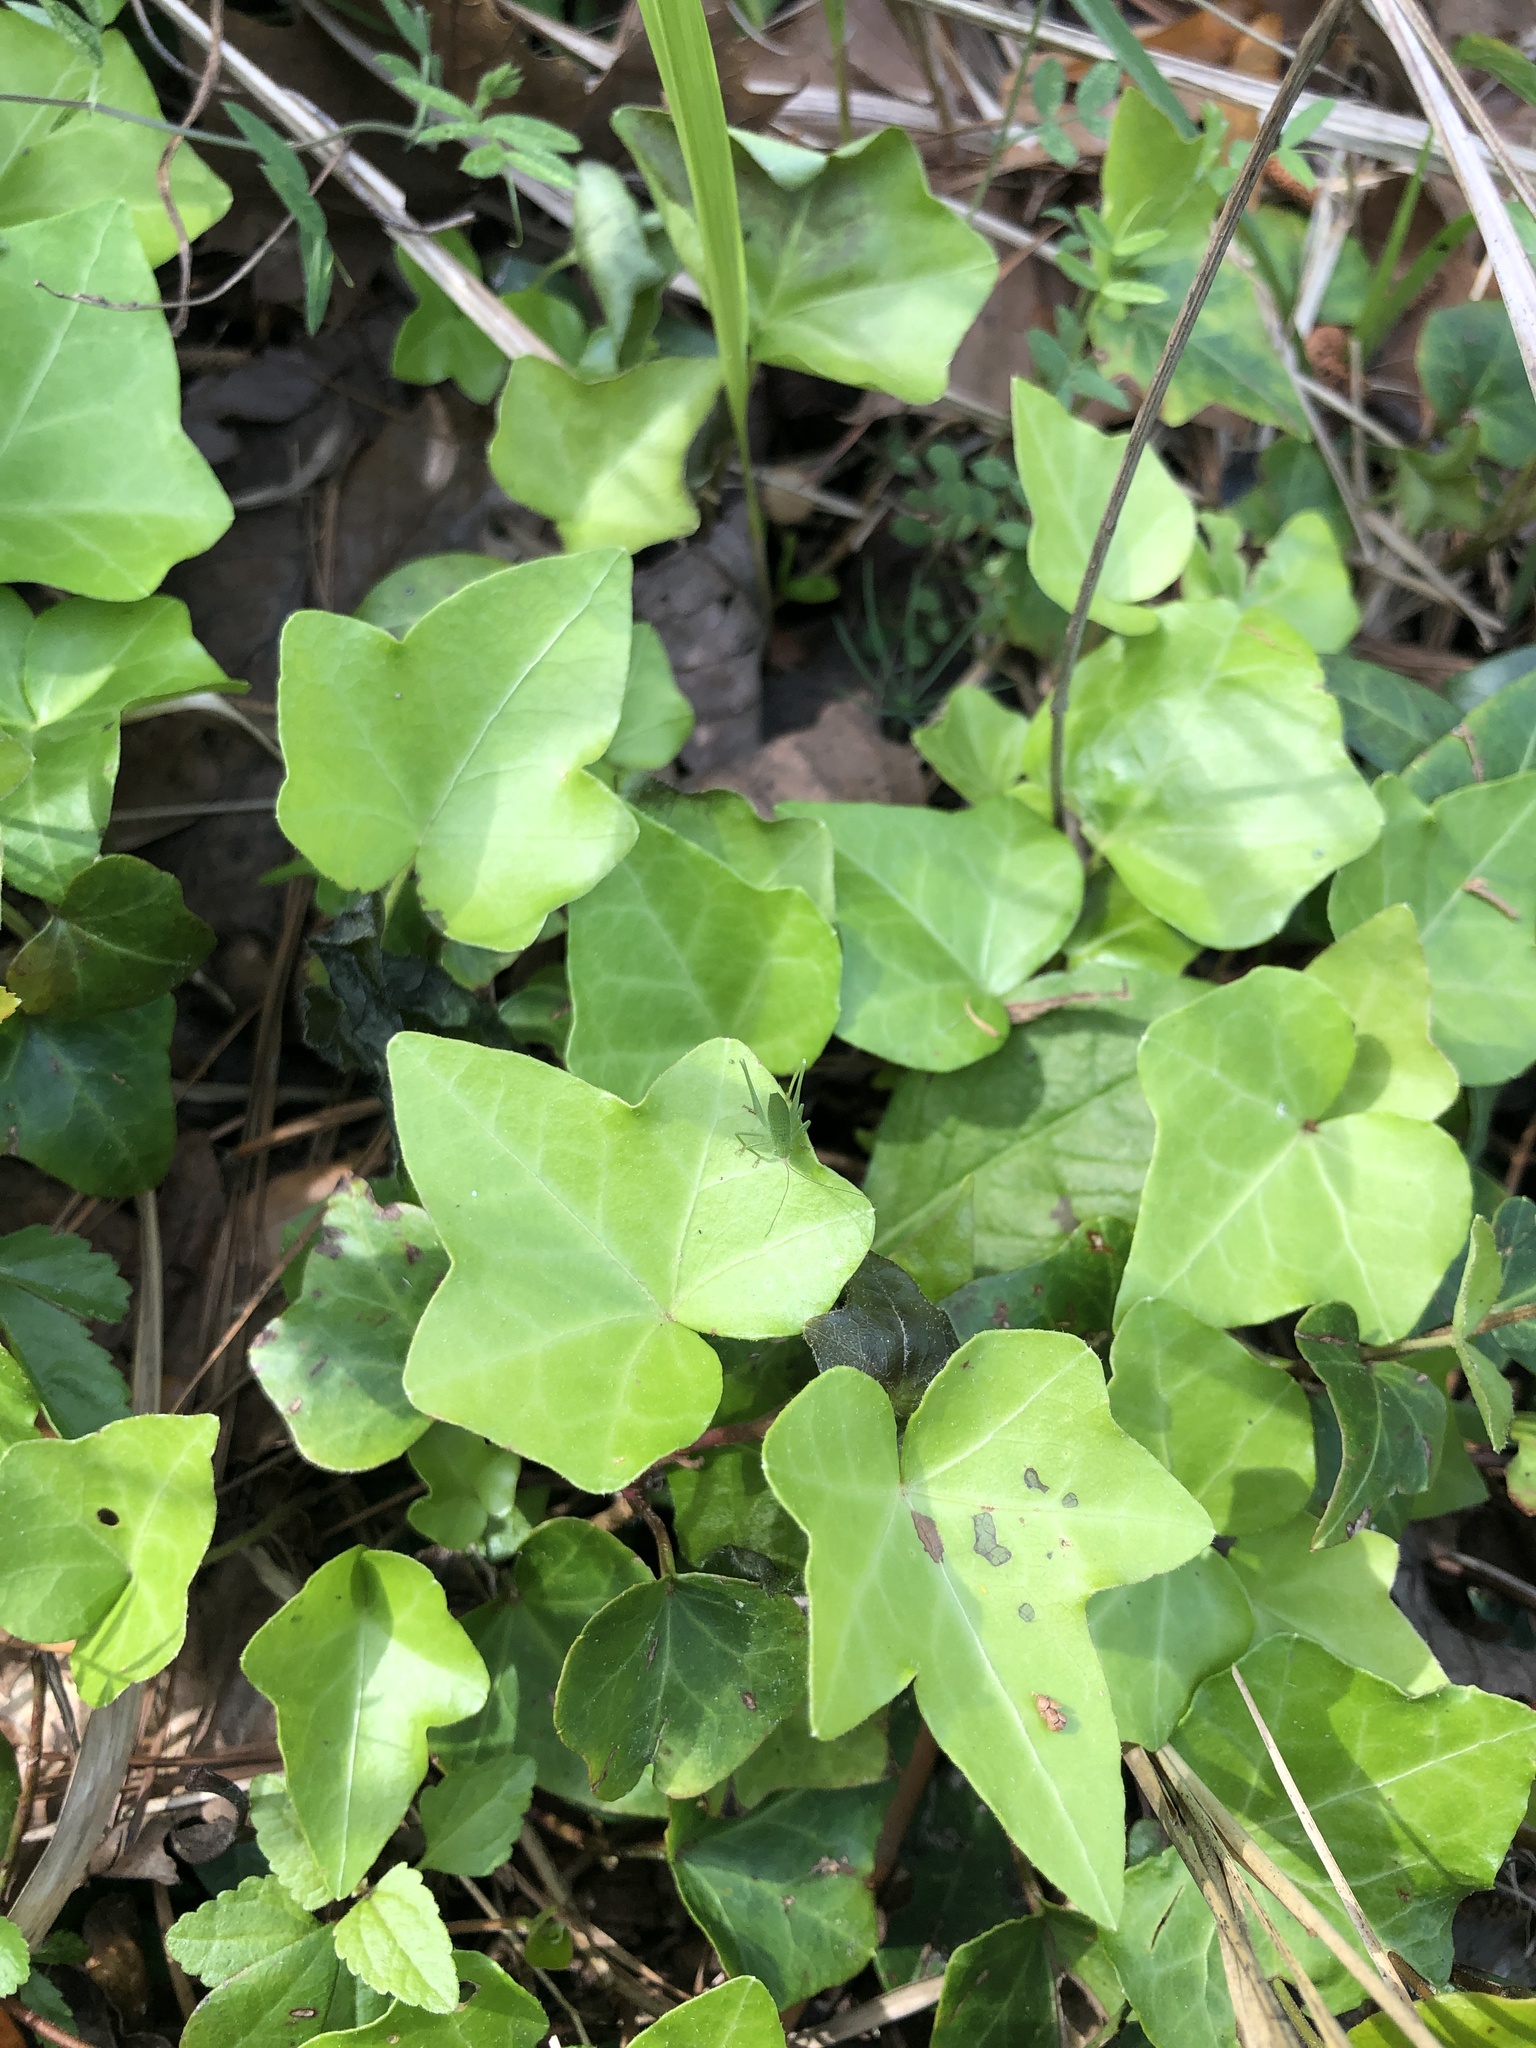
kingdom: Plantae
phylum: Tracheophyta
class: Magnoliopsida
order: Apiales
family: Araliaceae
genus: Hedera
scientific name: Hedera helix
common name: Ivy
